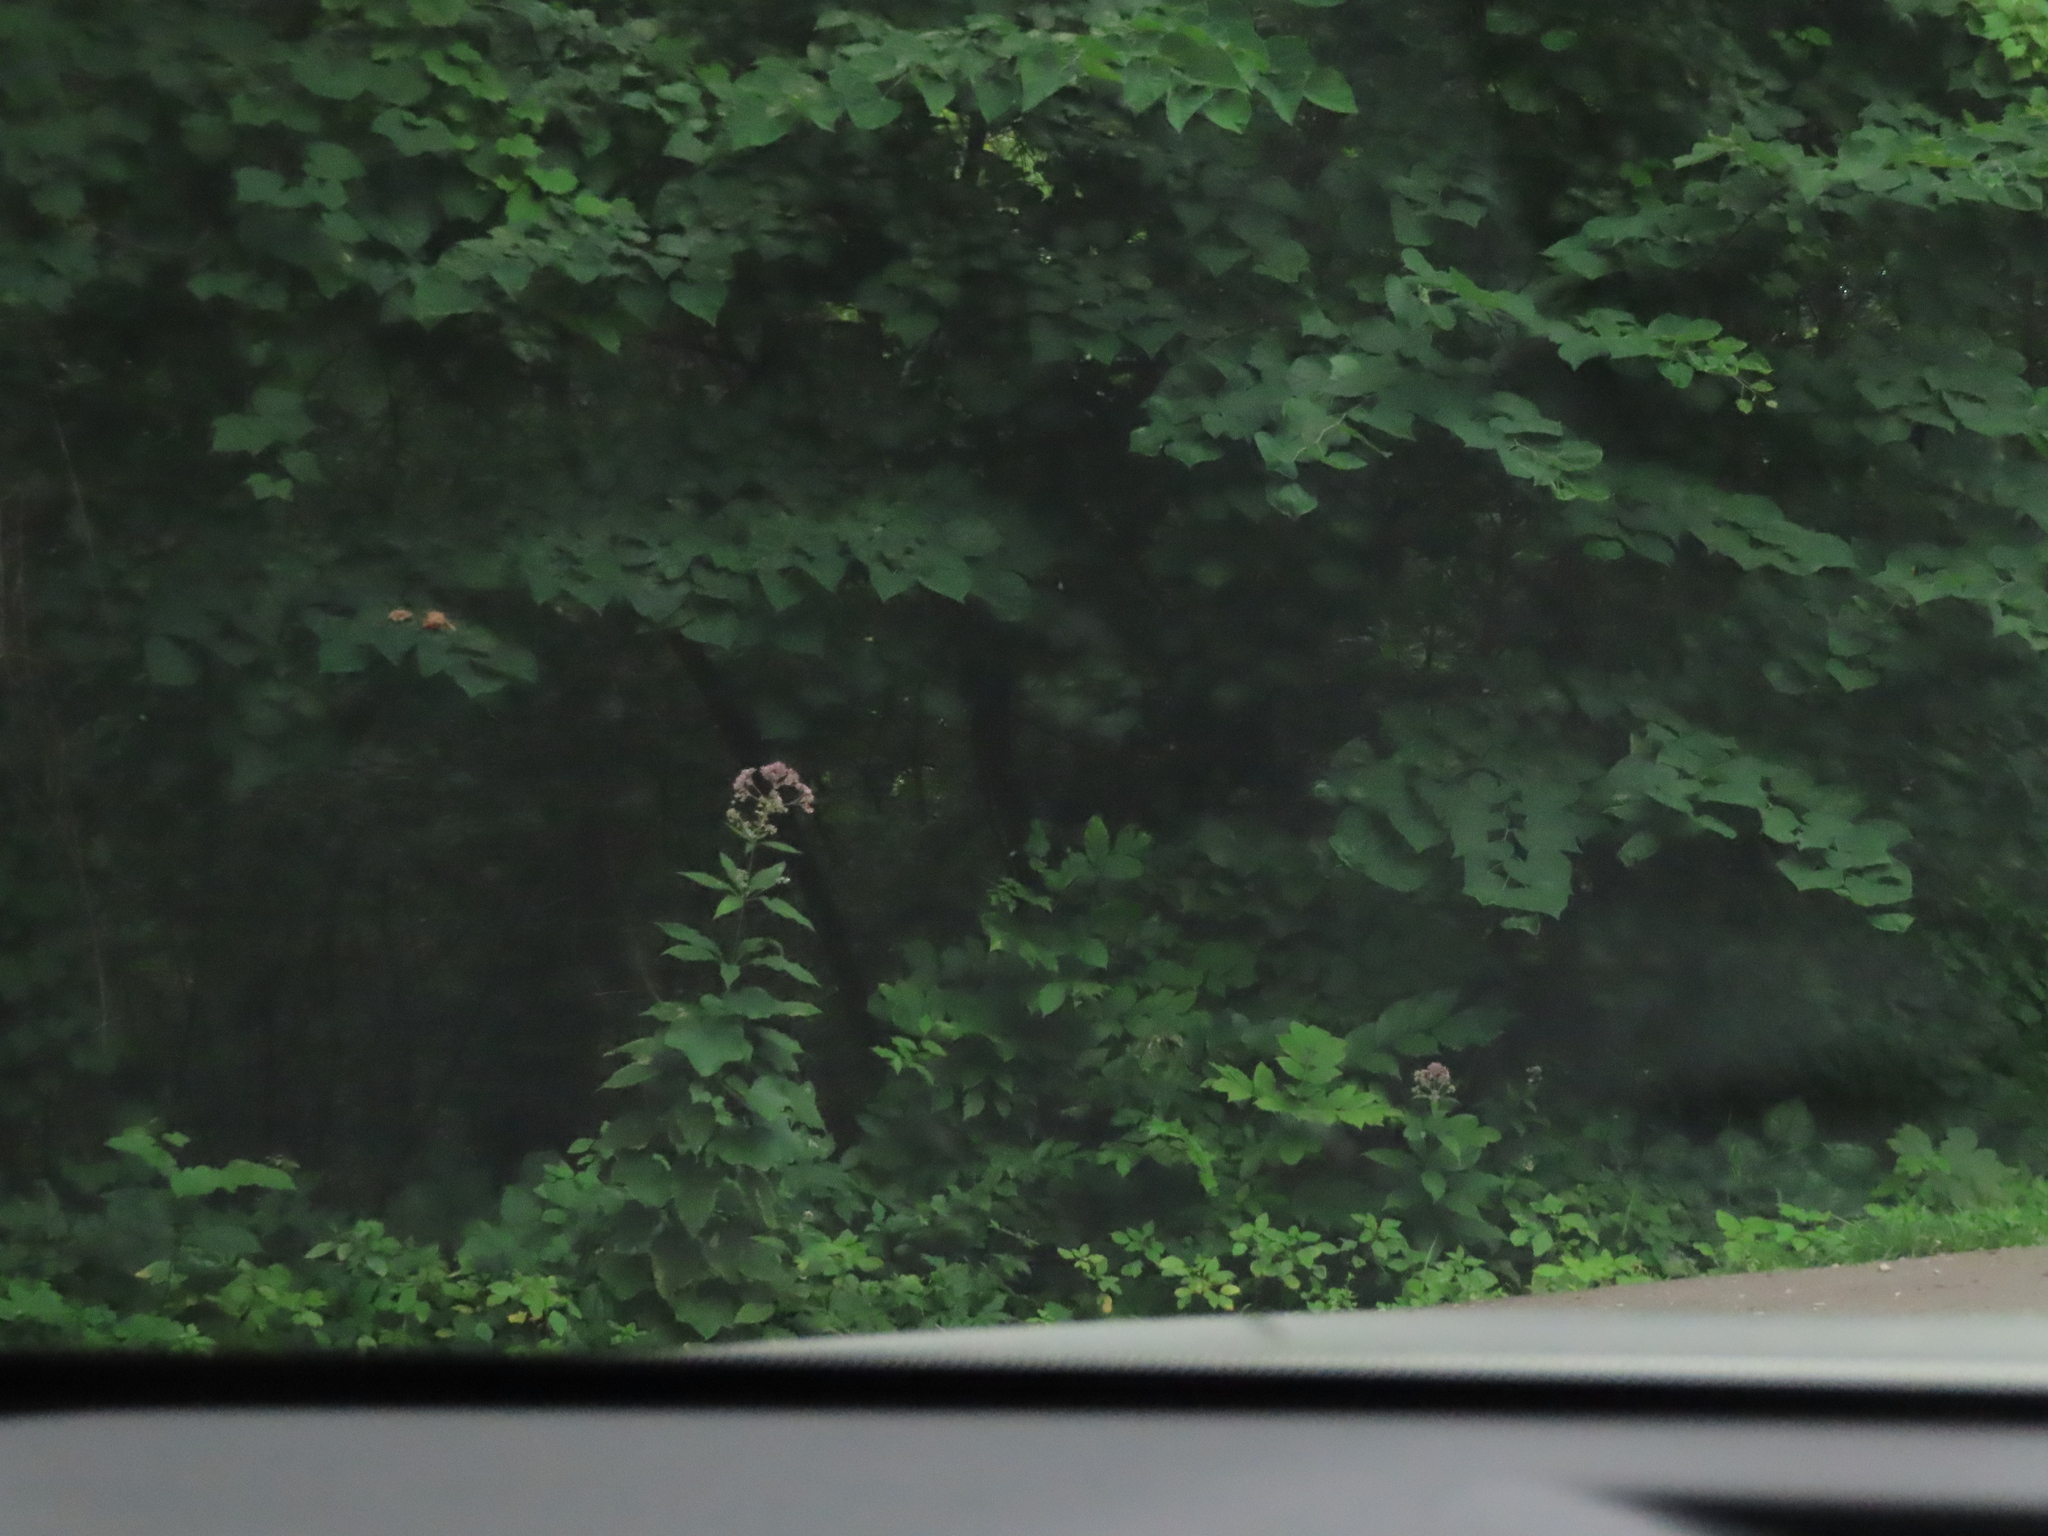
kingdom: Plantae
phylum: Tracheophyta
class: Magnoliopsida
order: Asterales
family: Asteraceae
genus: Eutrochium
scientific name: Eutrochium maculatum
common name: Spotted joe pye weed
